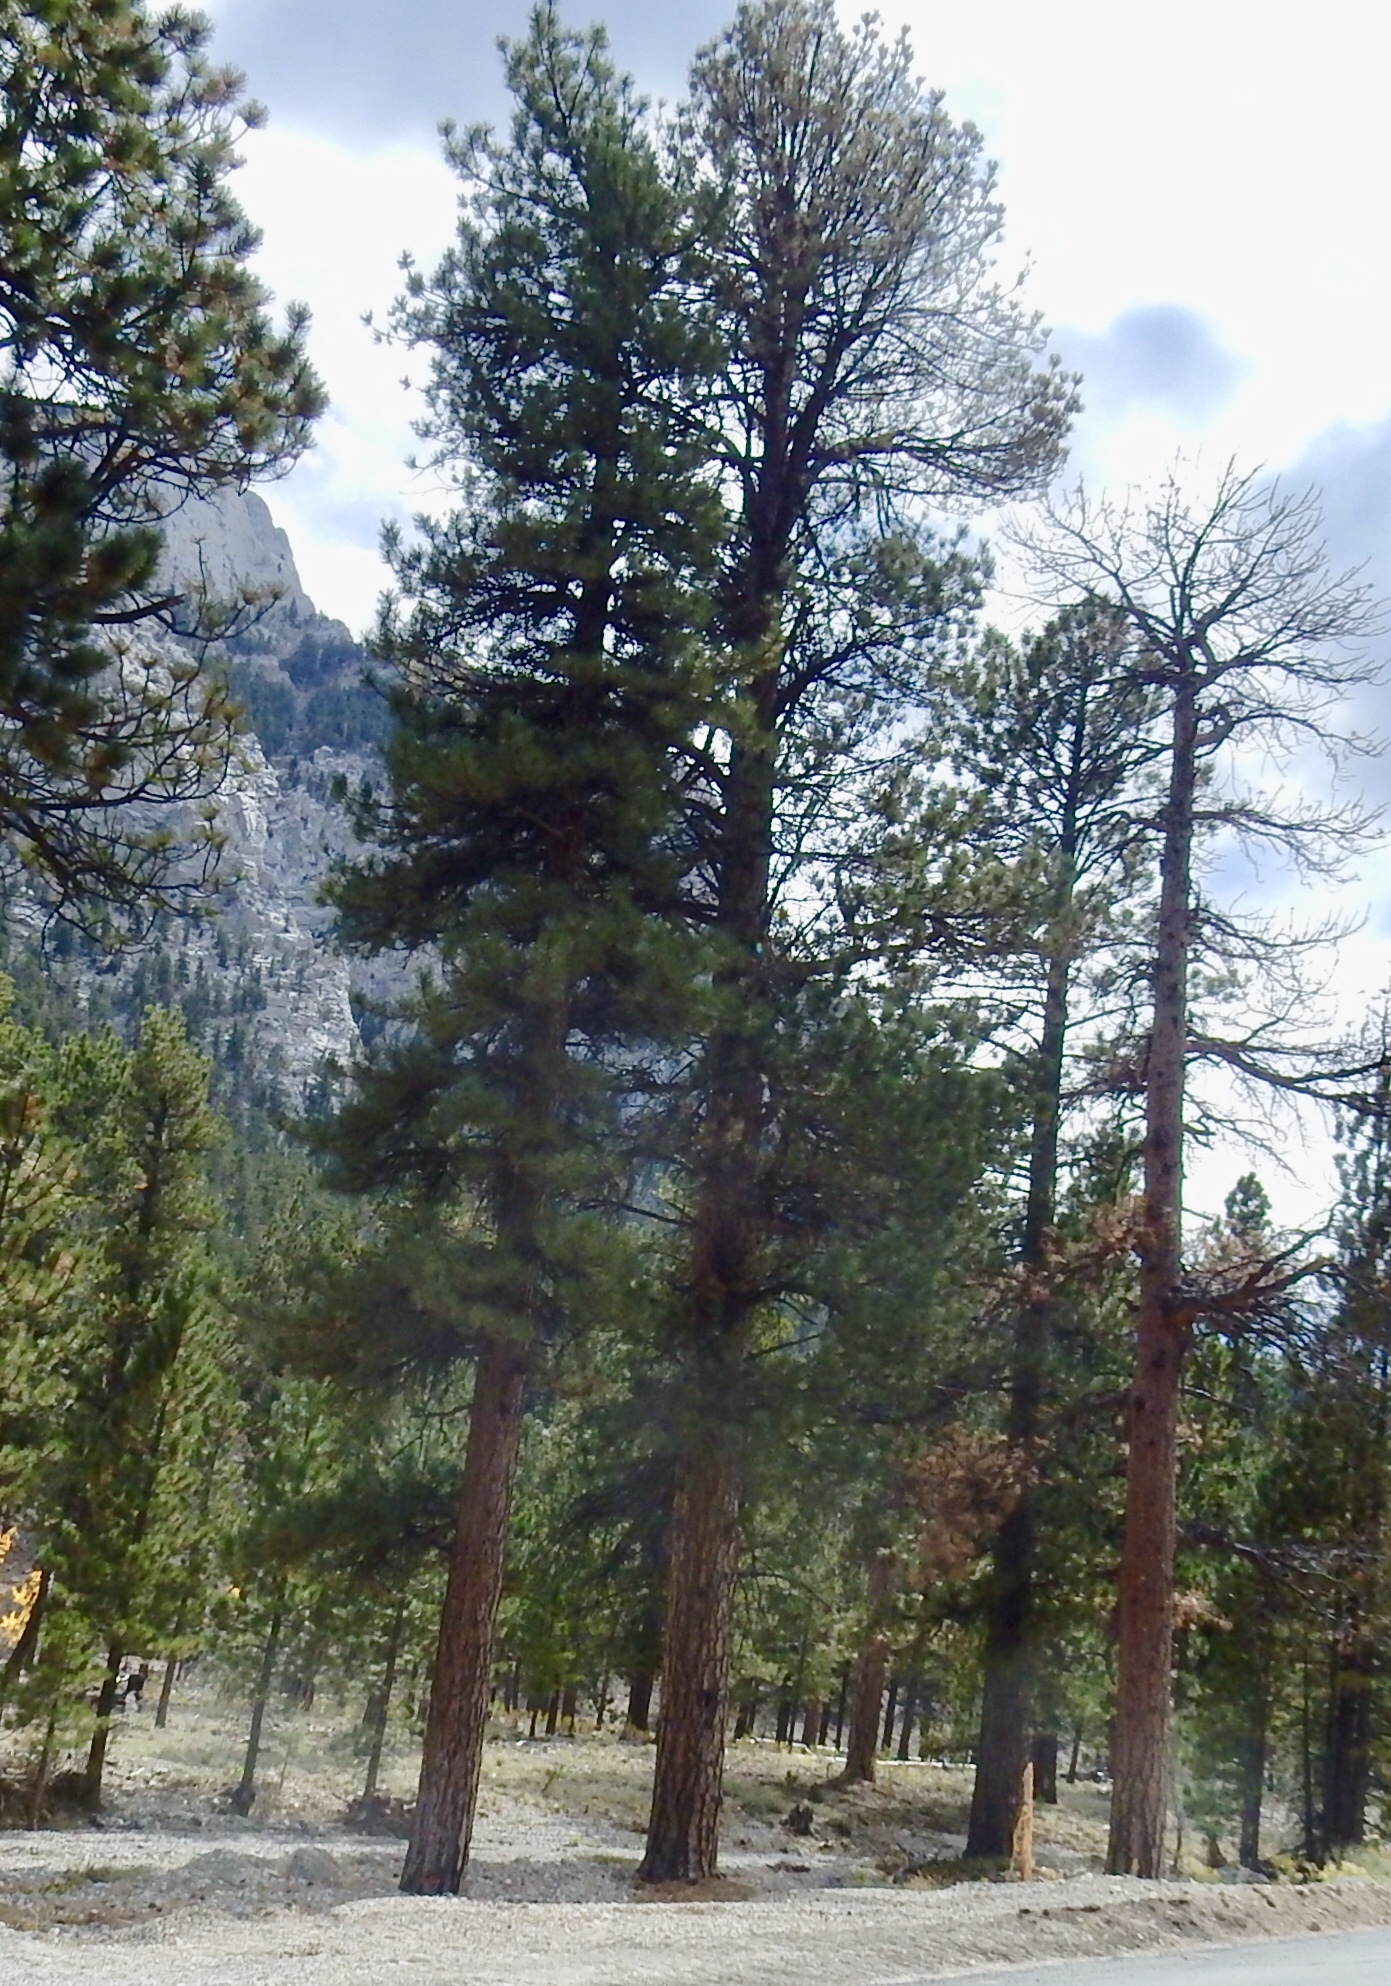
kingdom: Plantae
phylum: Tracheophyta
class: Pinopsida
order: Pinales
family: Pinaceae
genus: Pinus
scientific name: Pinus ponderosa
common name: Western yellow-pine
